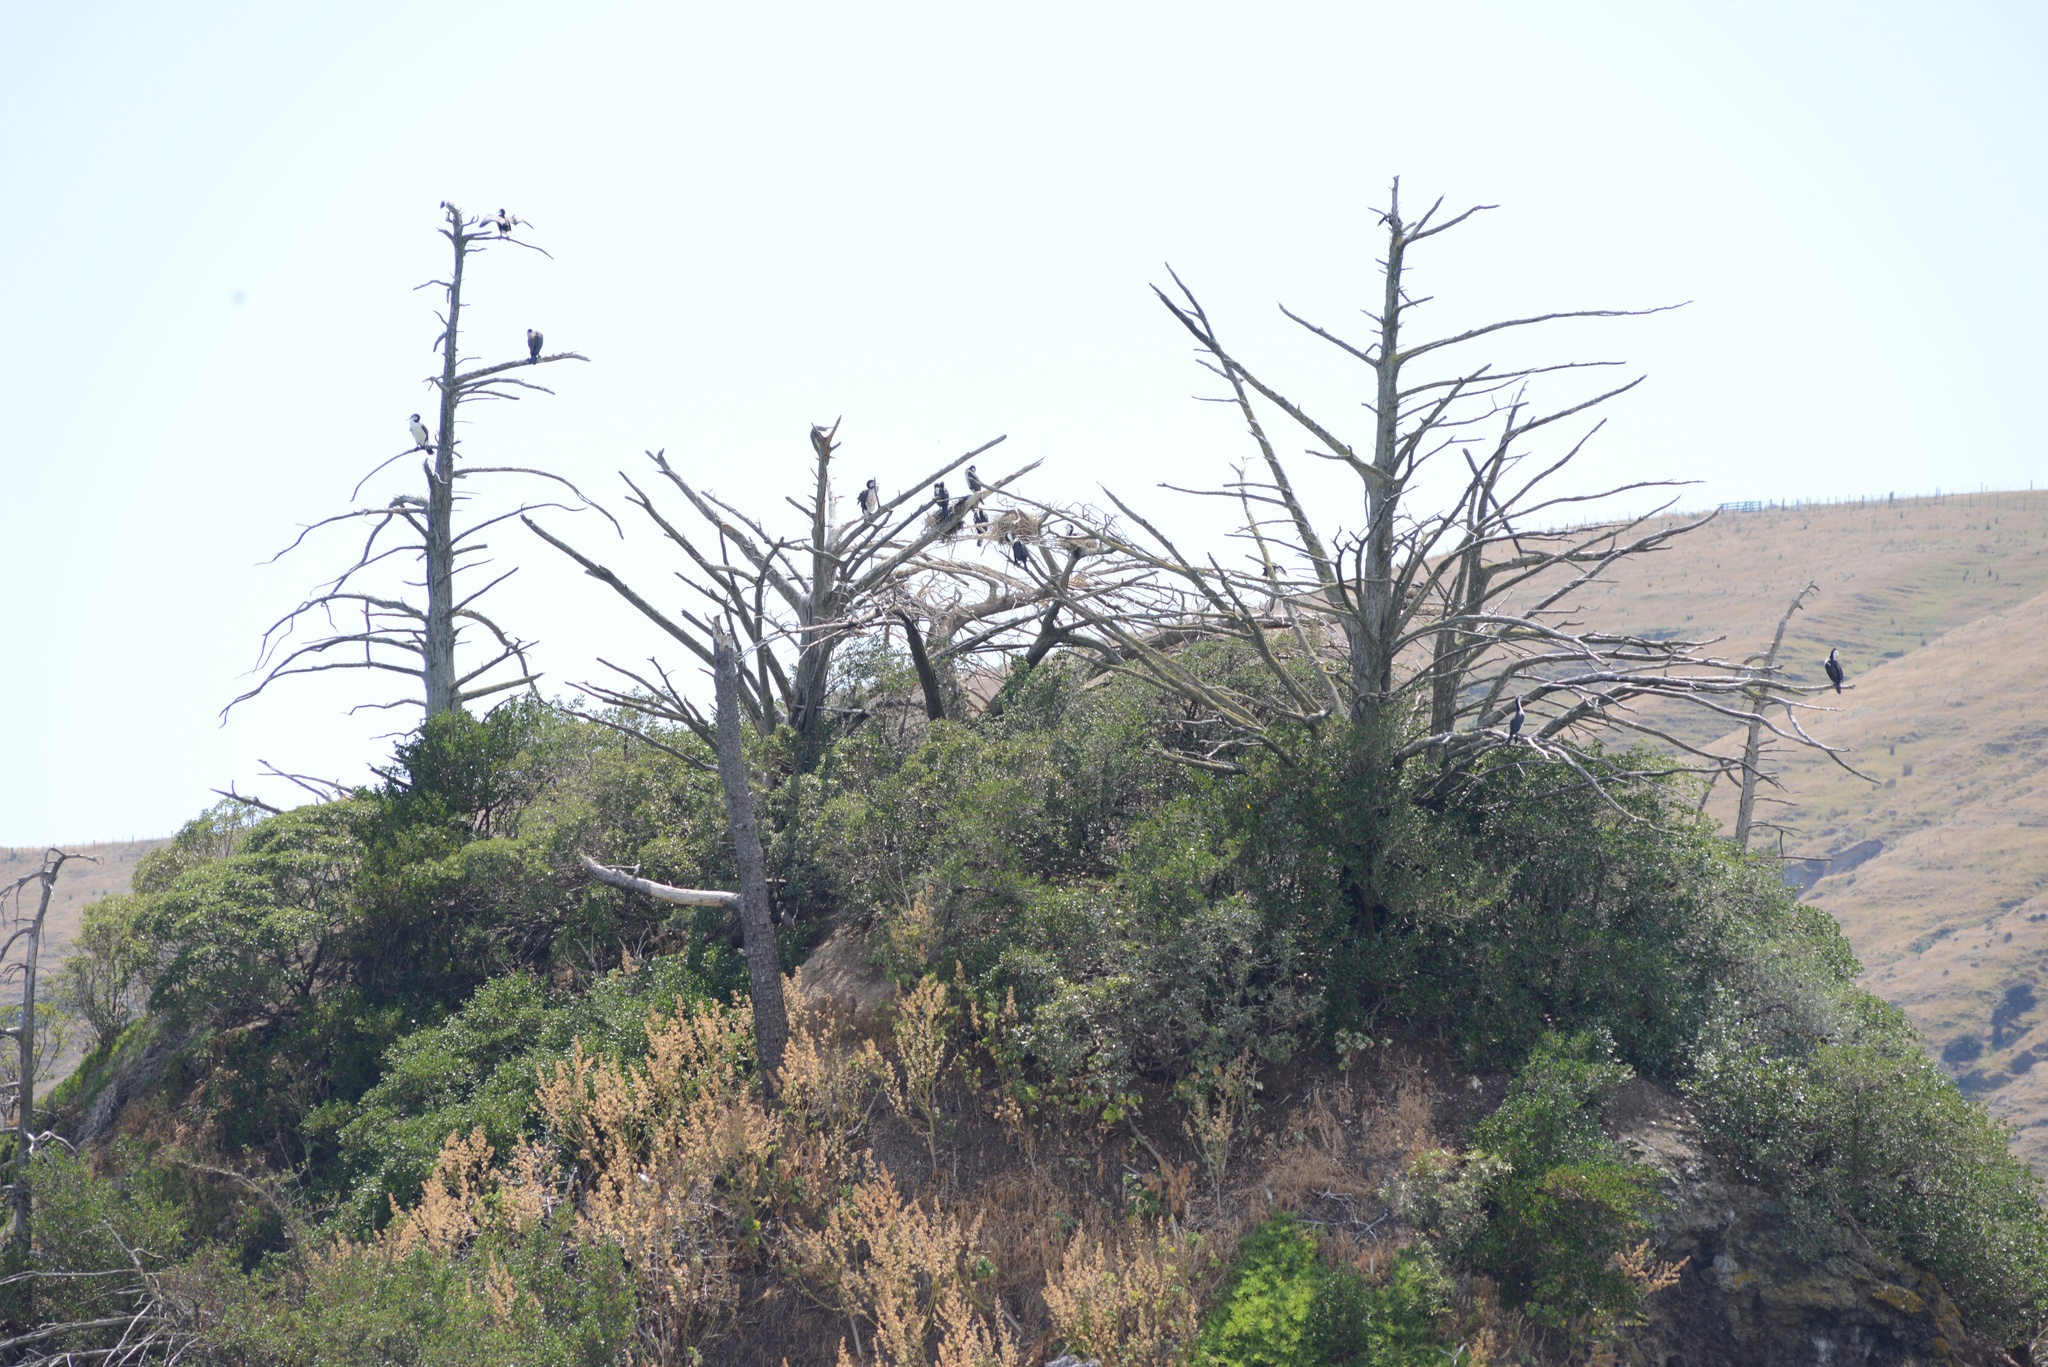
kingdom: Animalia
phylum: Chordata
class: Aves
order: Suliformes
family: Phalacrocoracidae
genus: Phalacrocorax
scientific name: Phalacrocorax varius
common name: Pied cormorant
